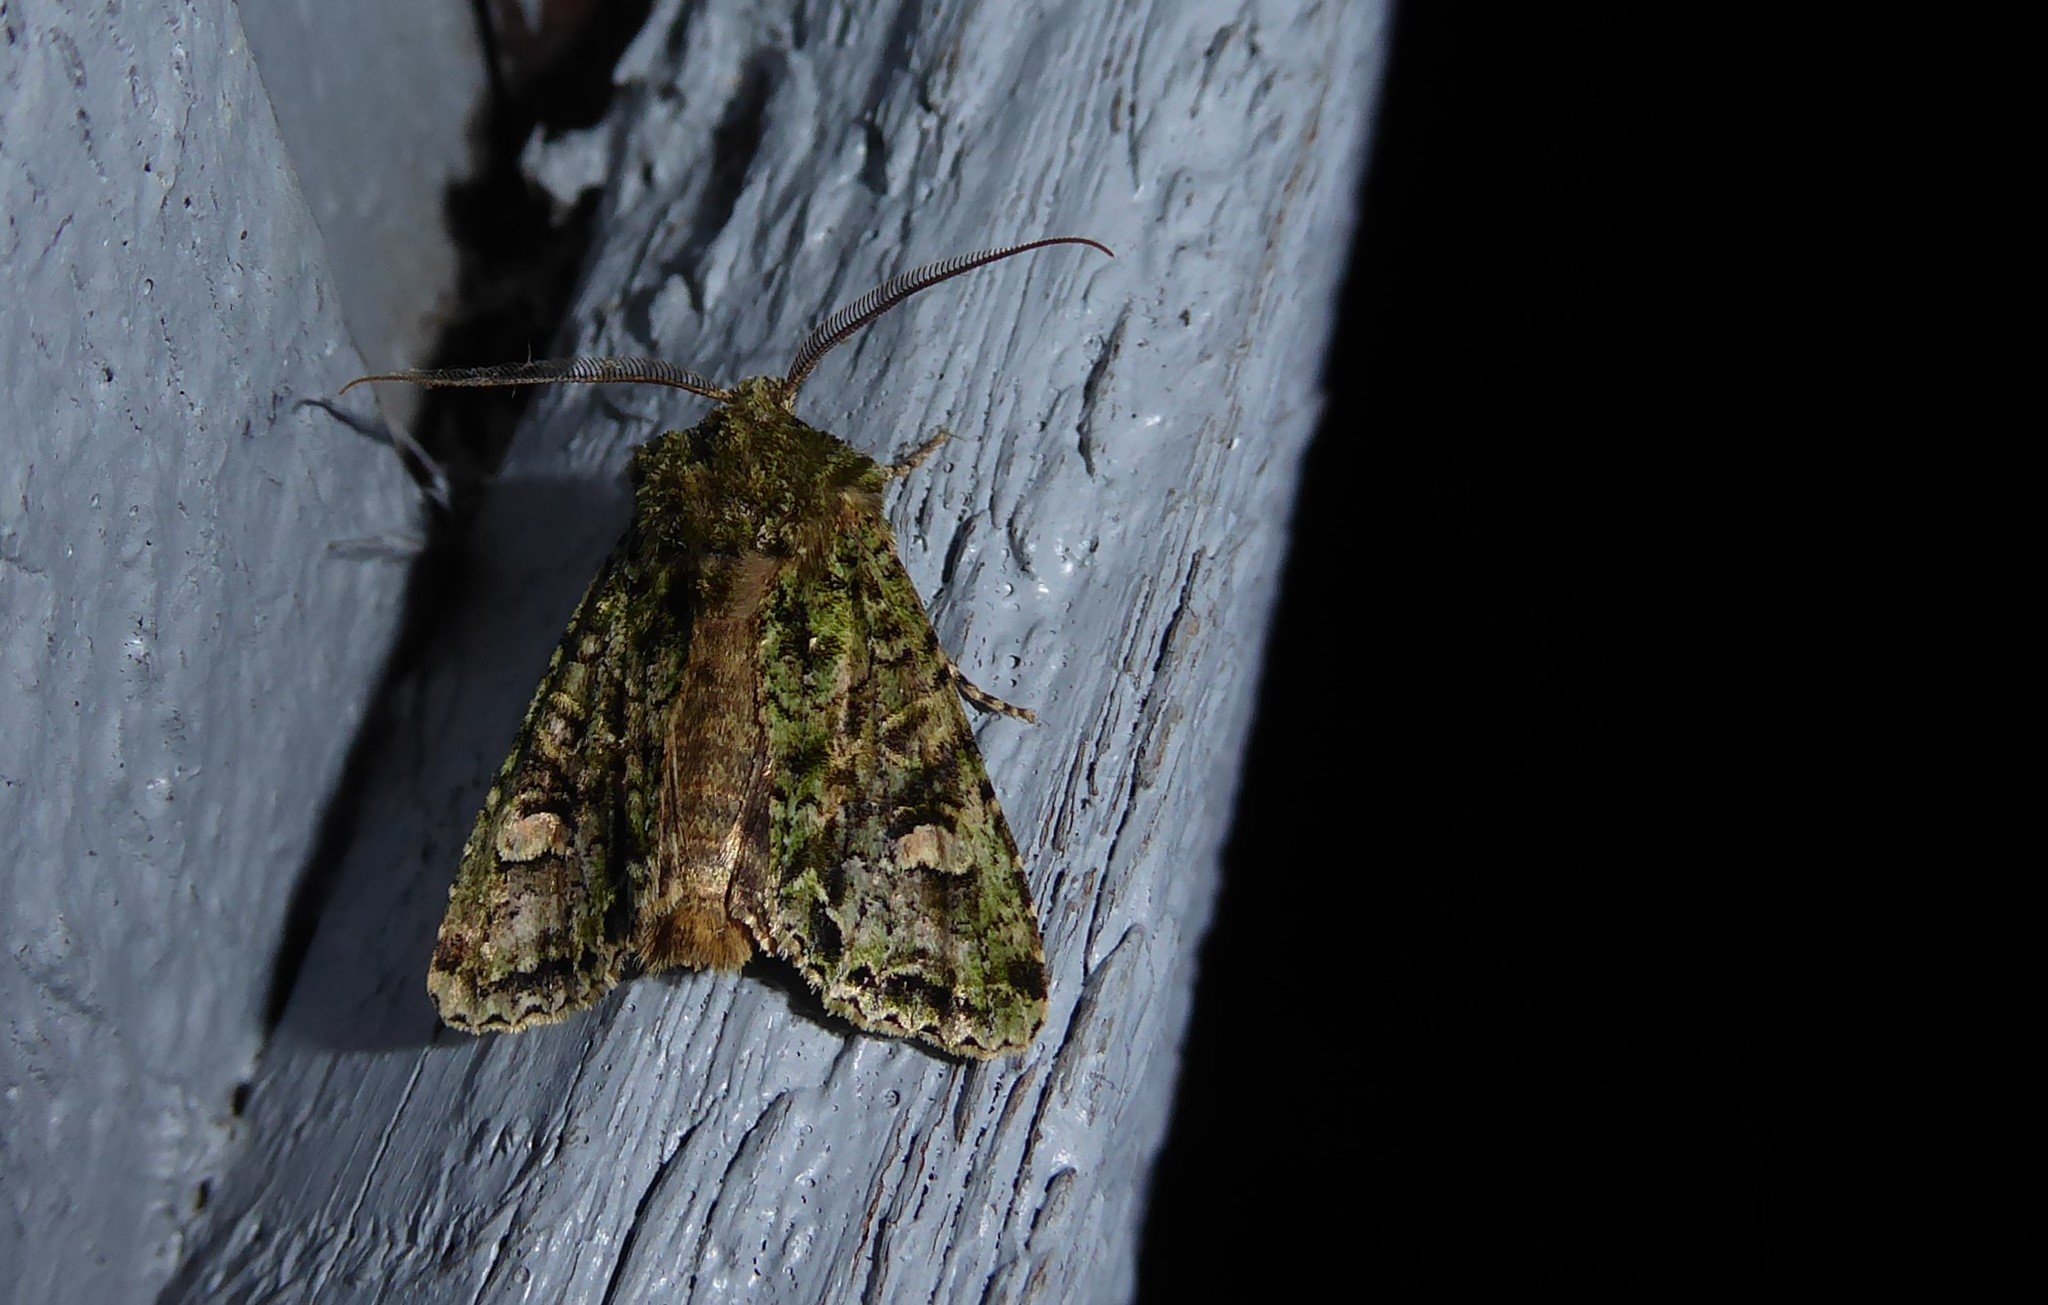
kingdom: Animalia
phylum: Arthropoda
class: Insecta
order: Lepidoptera
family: Noctuidae
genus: Ichneutica
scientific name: Ichneutica
